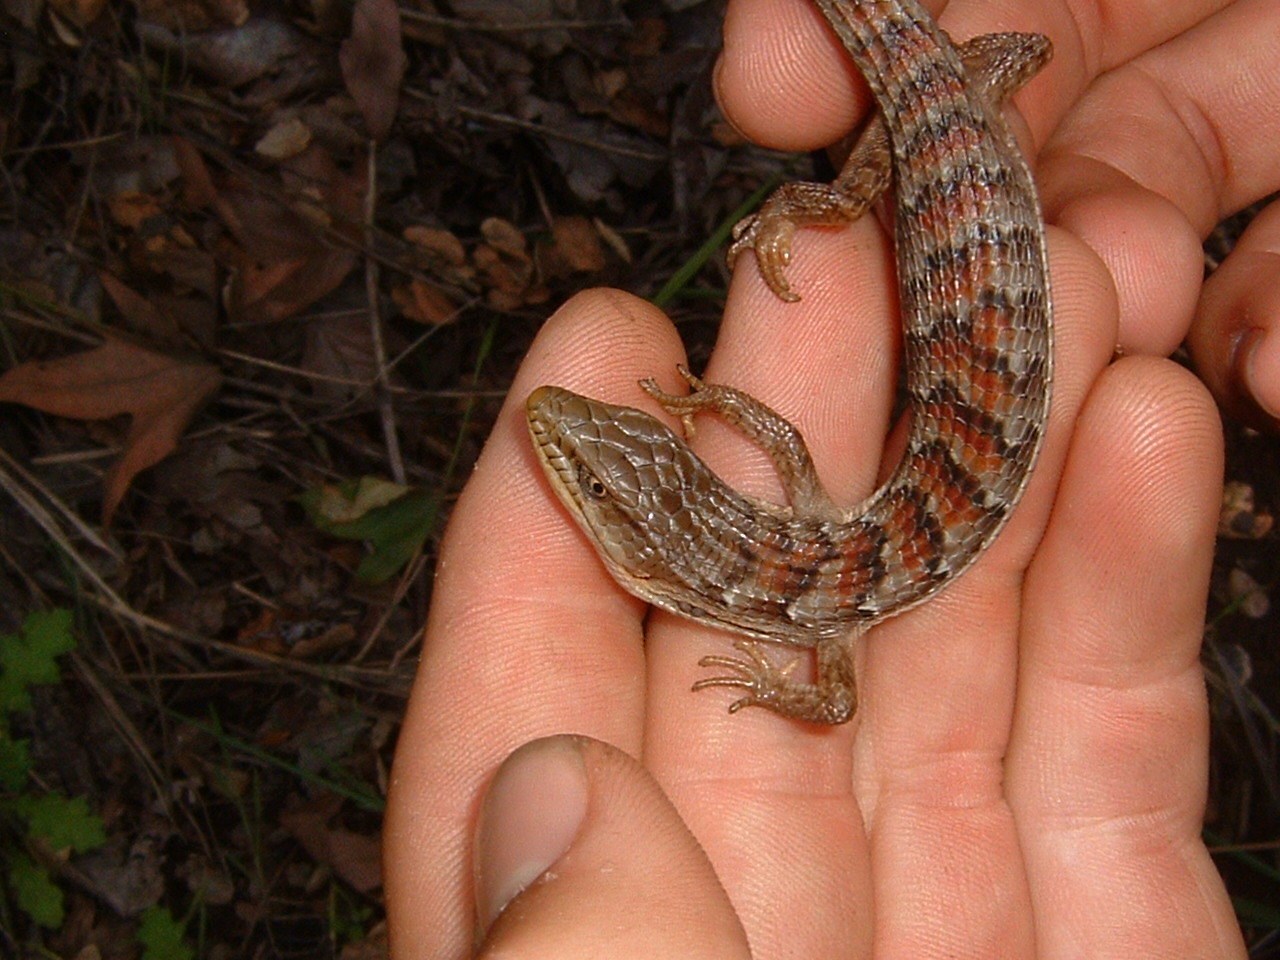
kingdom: Animalia
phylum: Chordata
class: Squamata
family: Anguidae
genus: Elgaria
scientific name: Elgaria multicarinata
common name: Southern alligator lizard
